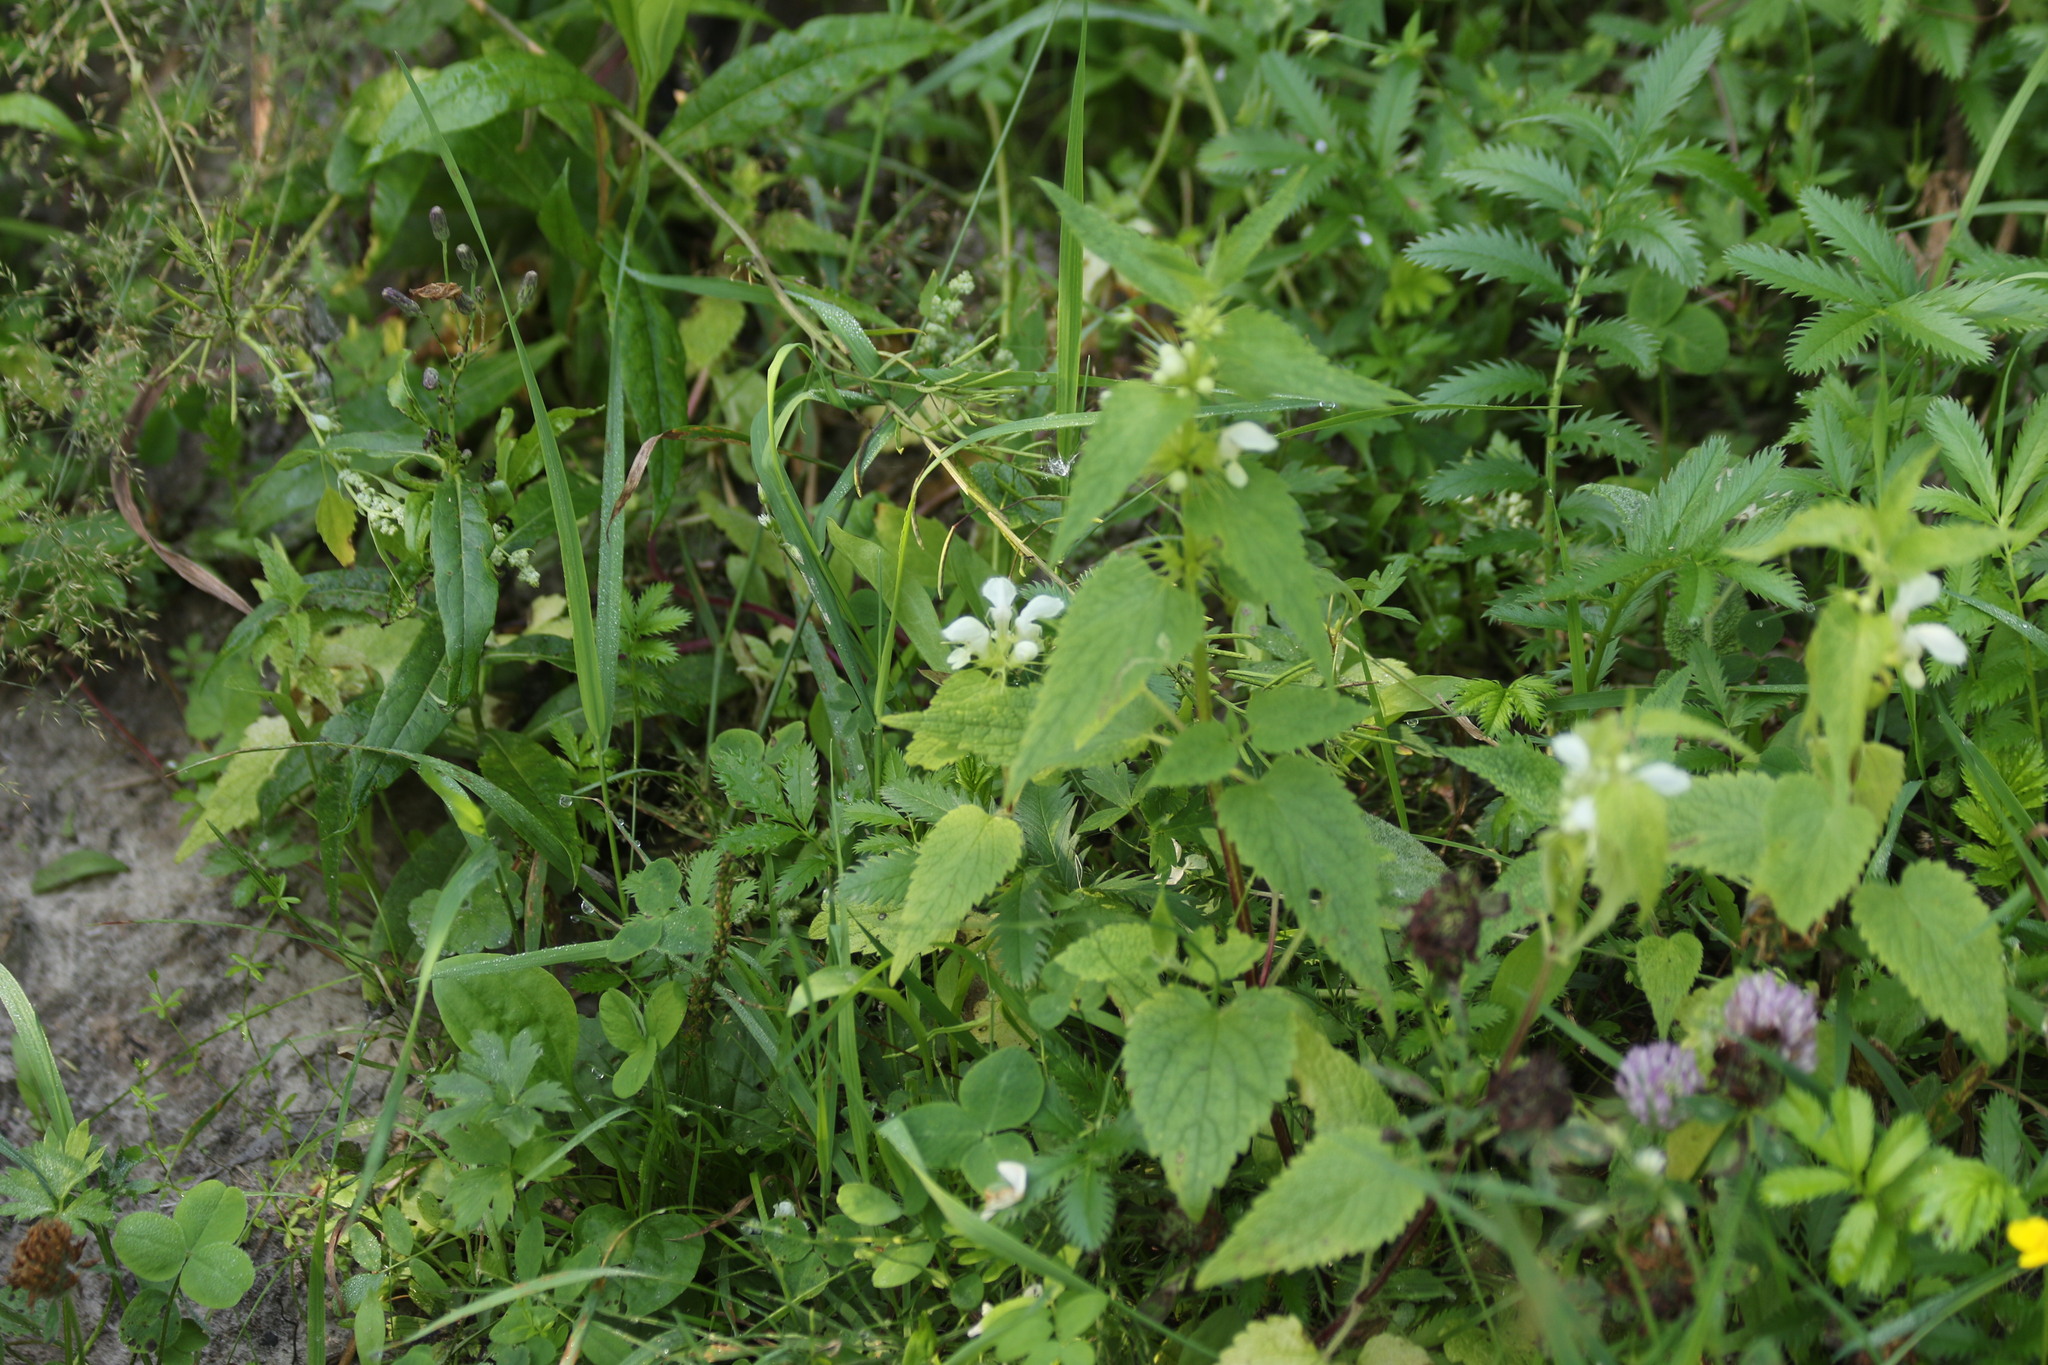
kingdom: Plantae
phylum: Tracheophyta
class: Magnoliopsida
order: Lamiales
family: Lamiaceae
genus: Lamium
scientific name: Lamium album
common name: White dead-nettle
